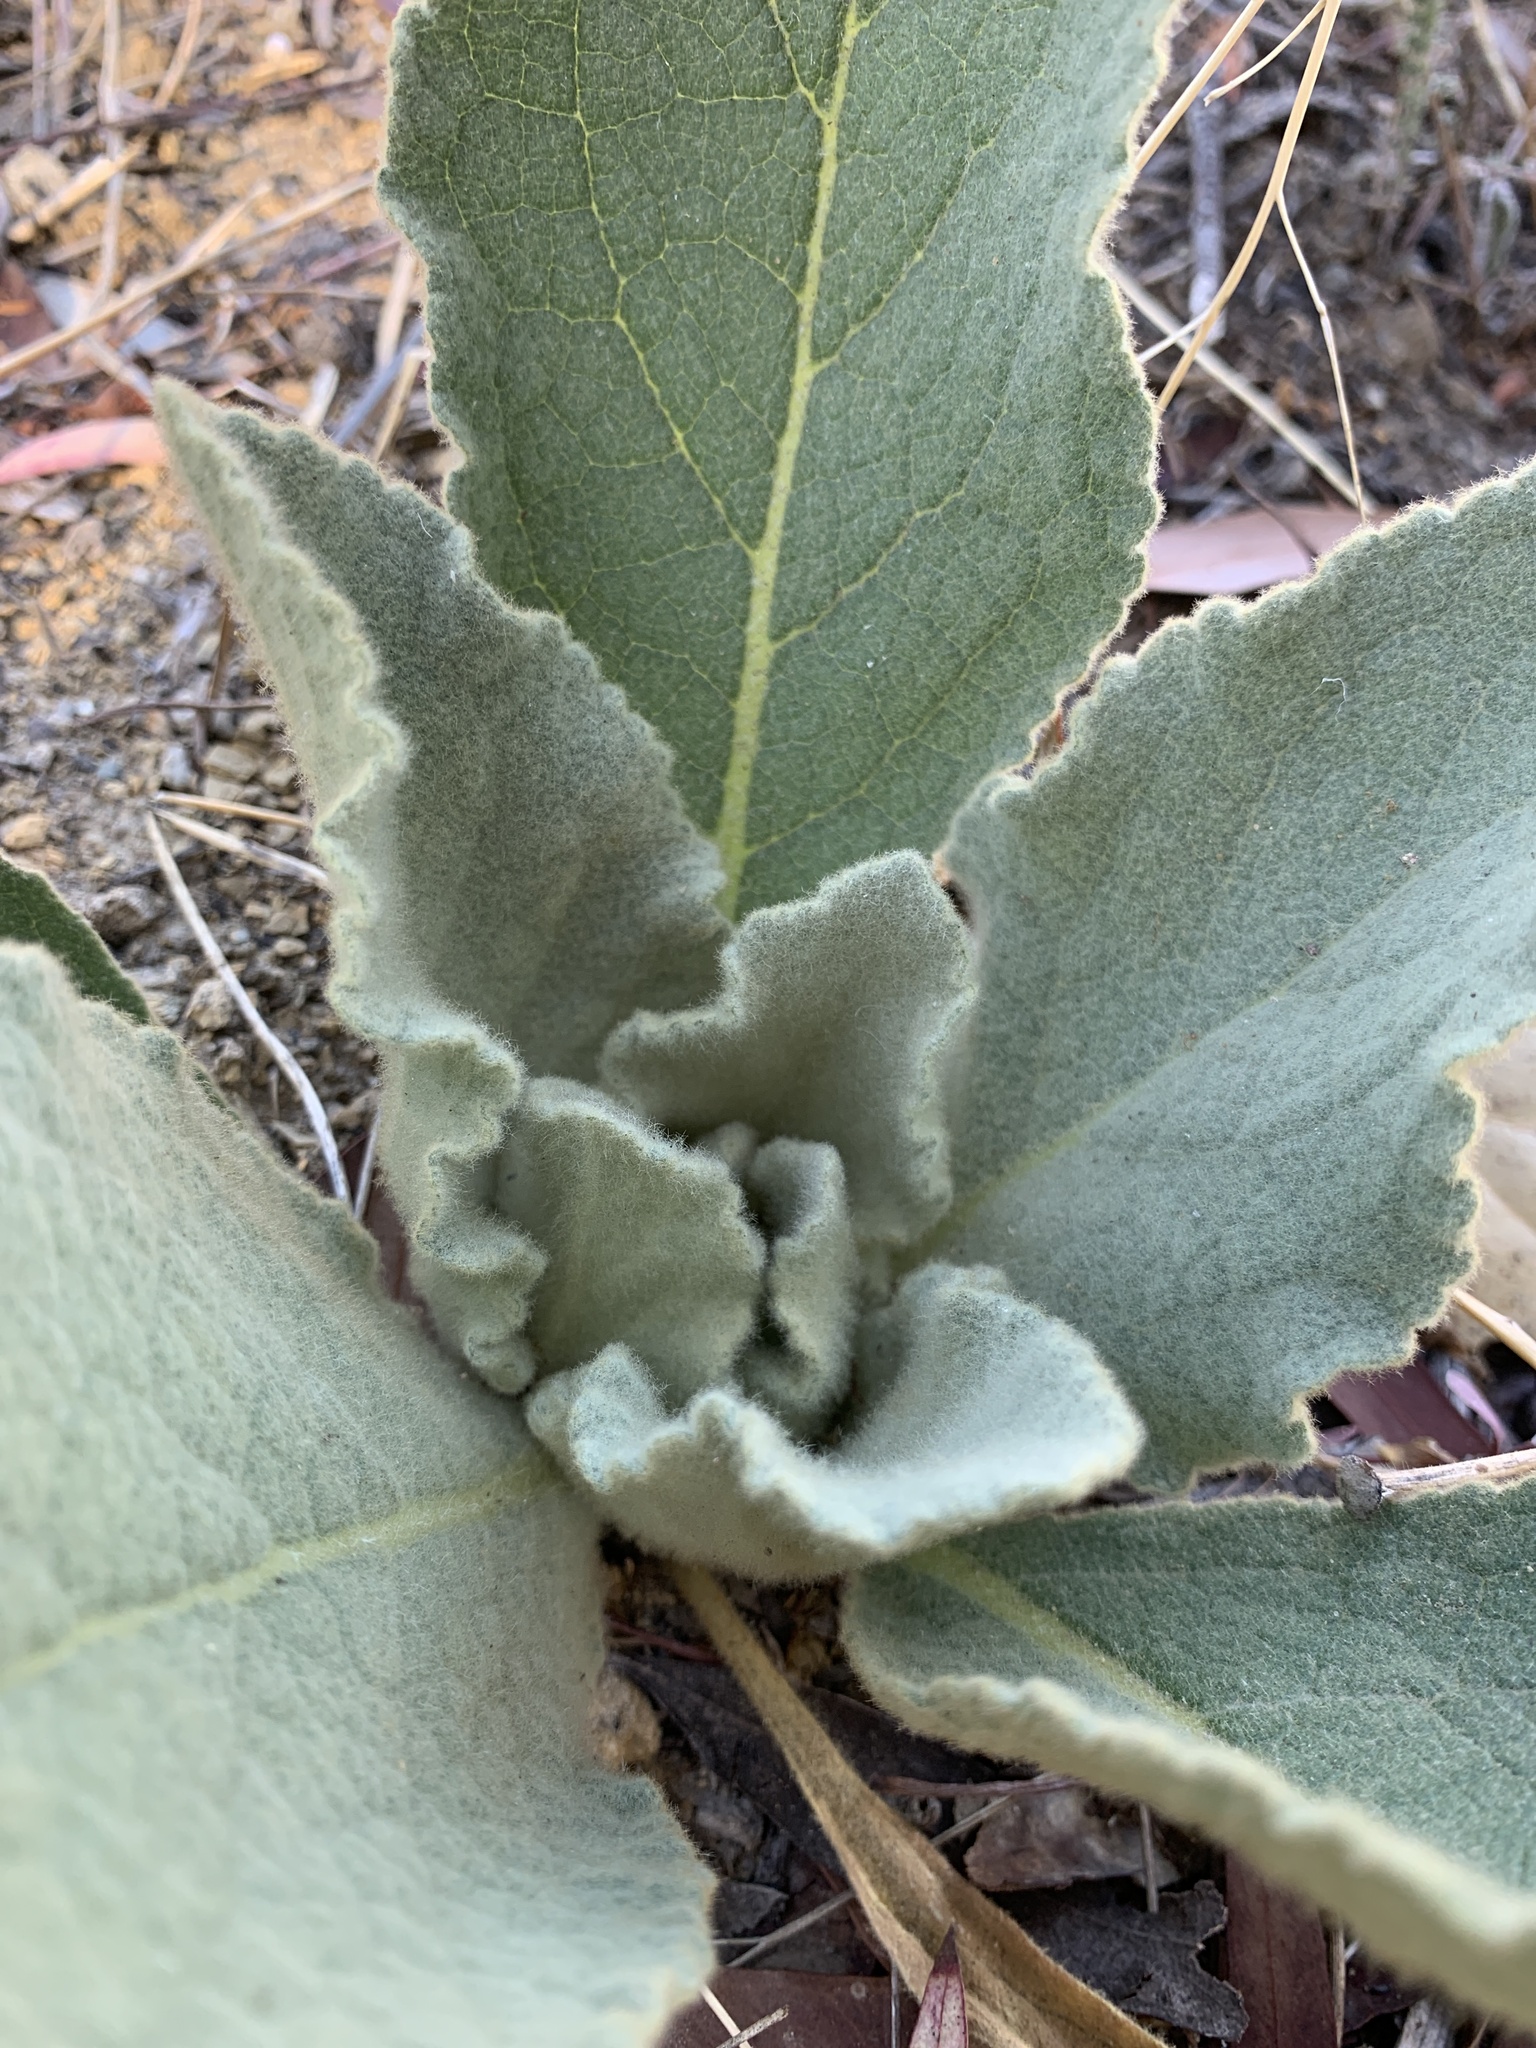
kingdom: Plantae
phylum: Tracheophyta
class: Magnoliopsida
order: Lamiales
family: Scrophulariaceae
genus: Verbascum
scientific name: Verbascum thapsus
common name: Common mullein
